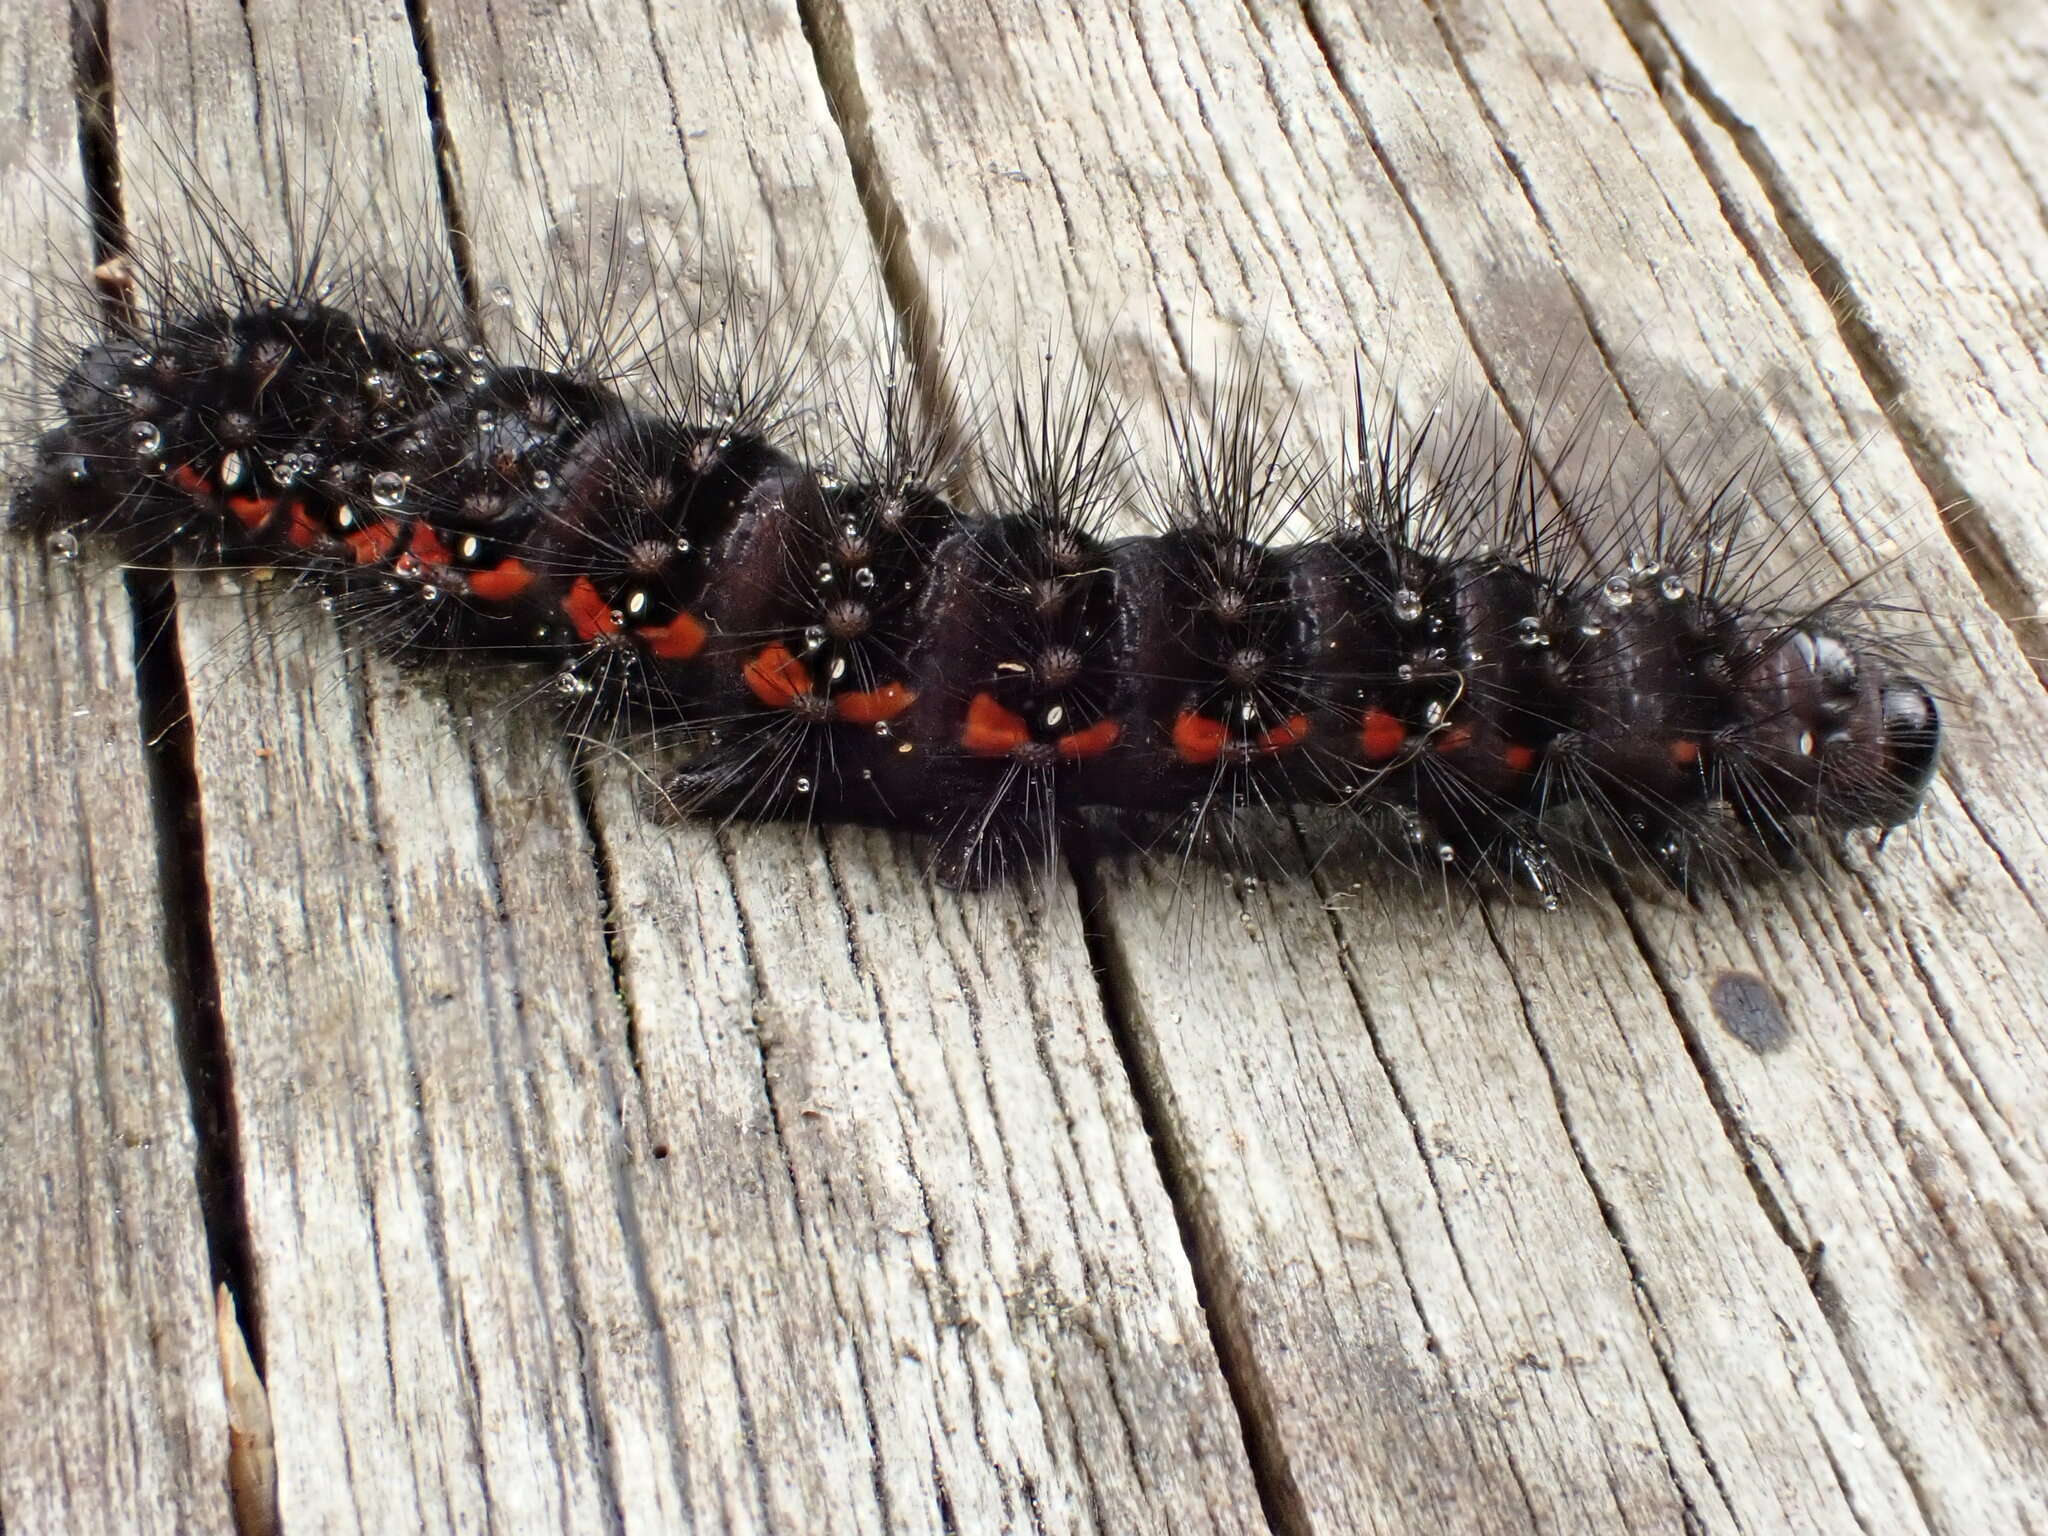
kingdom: Animalia
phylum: Arthropoda
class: Insecta
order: Lepidoptera
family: Noctuidae
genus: Acronicta
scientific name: Acronicta menyanthidis
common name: Light knot grass
